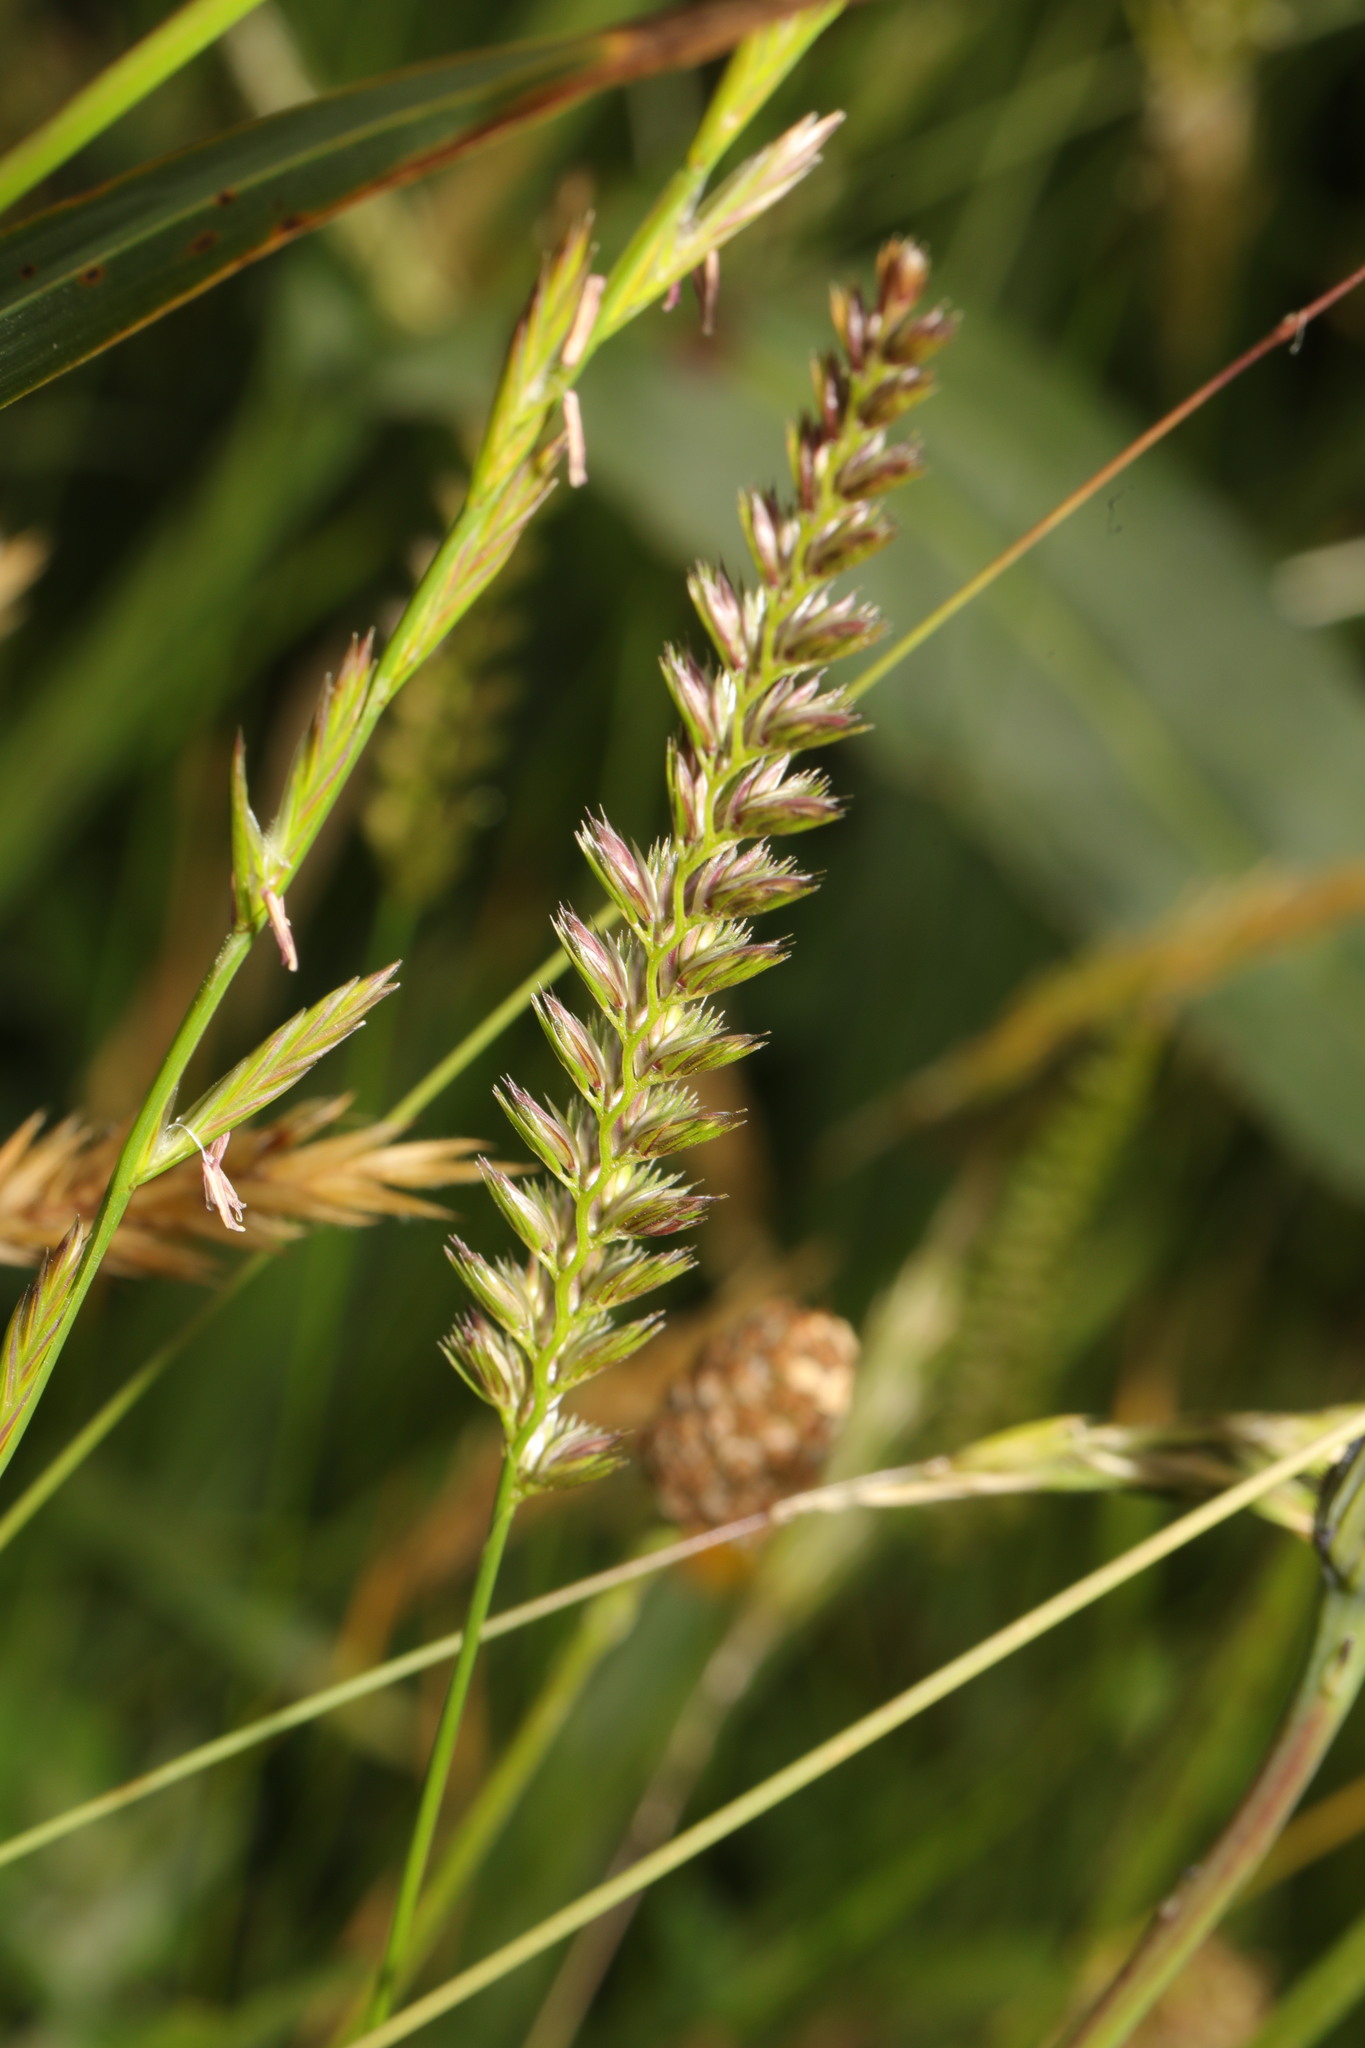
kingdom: Plantae
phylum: Tracheophyta
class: Liliopsida
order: Poales
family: Poaceae
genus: Cynosurus
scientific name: Cynosurus cristatus
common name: Crested dog's-tail
